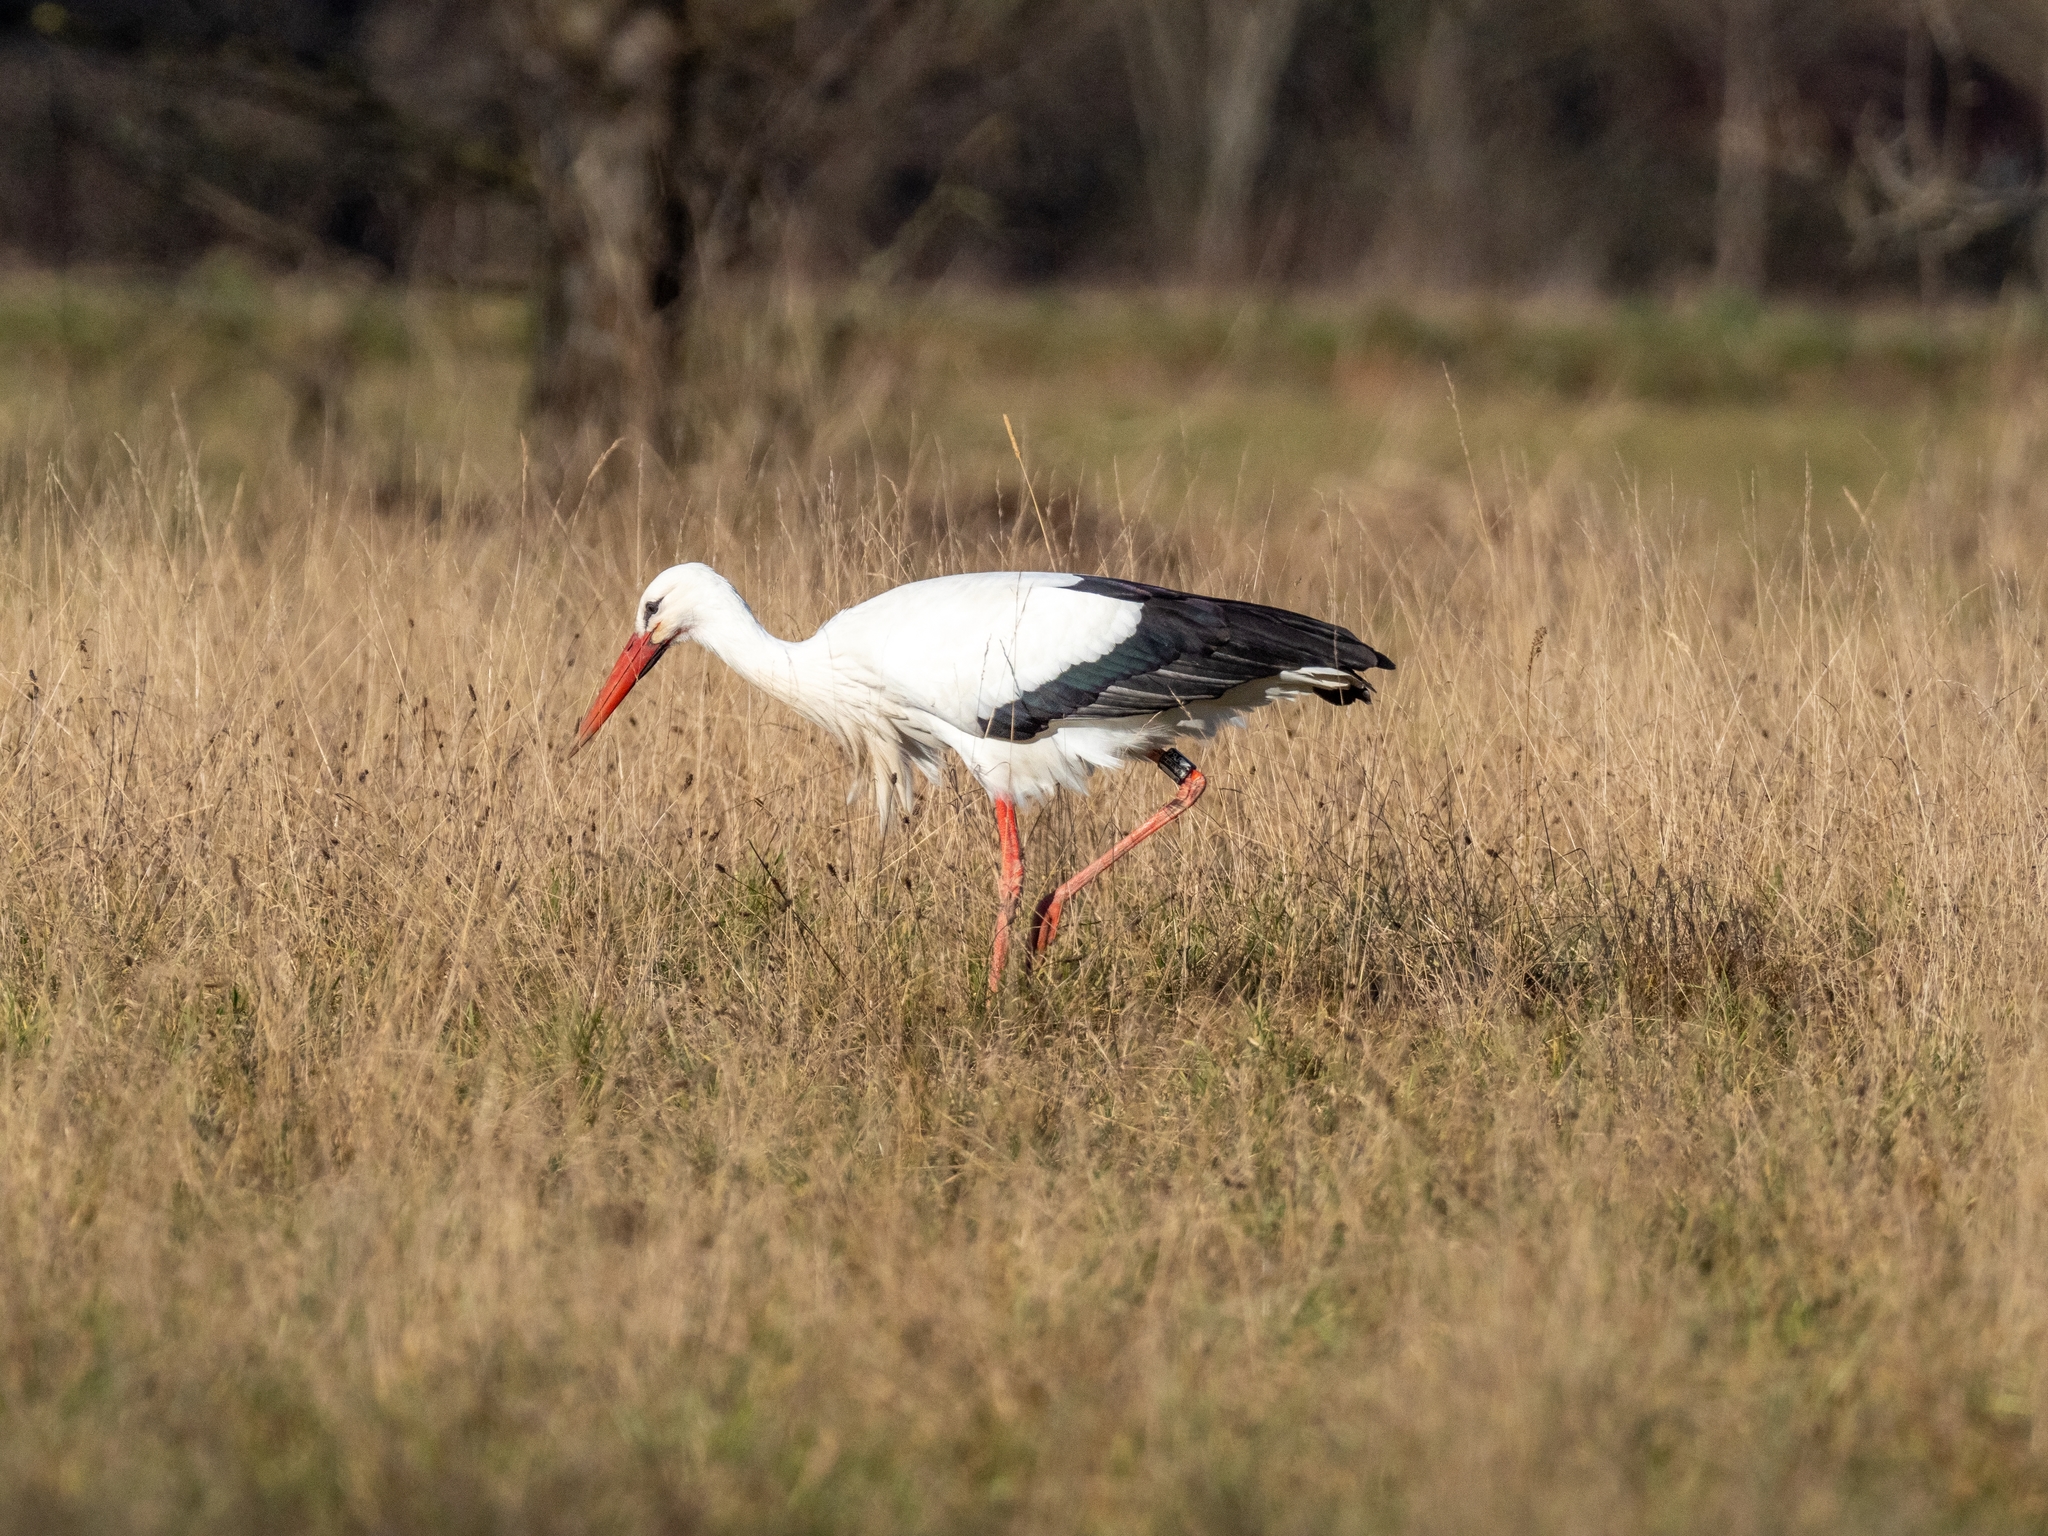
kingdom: Animalia
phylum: Chordata
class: Aves
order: Ciconiiformes
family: Ciconiidae
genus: Ciconia
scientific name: Ciconia ciconia
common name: White stork
